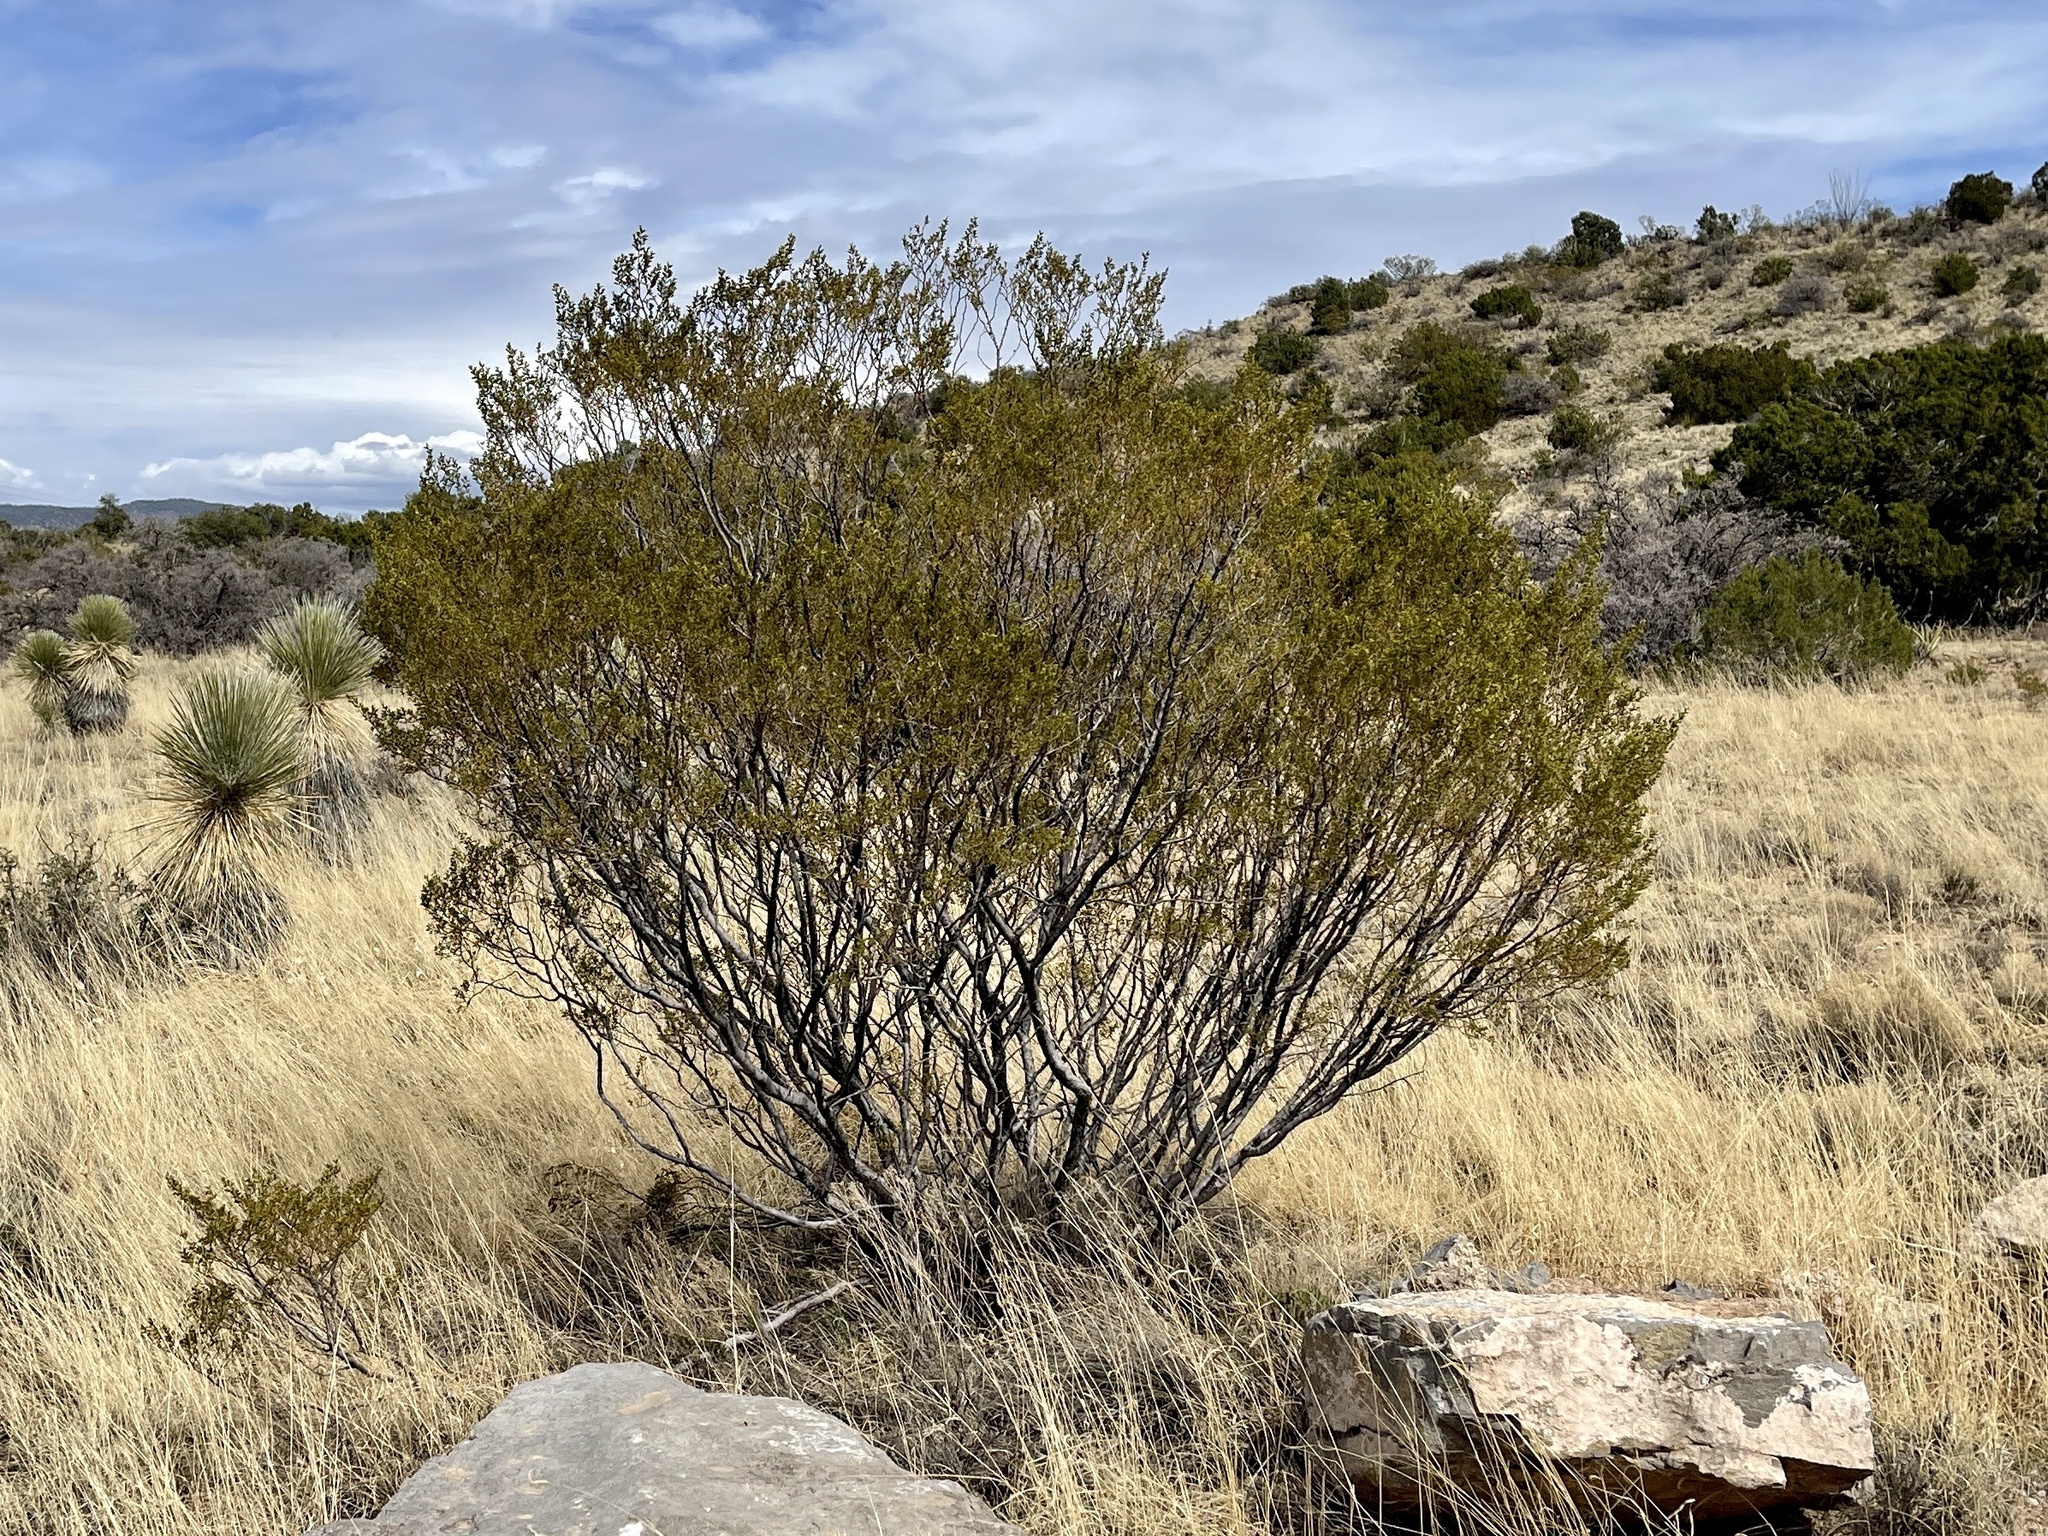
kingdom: Plantae
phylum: Tracheophyta
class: Magnoliopsida
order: Zygophyllales
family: Zygophyllaceae
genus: Larrea
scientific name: Larrea tridentata
